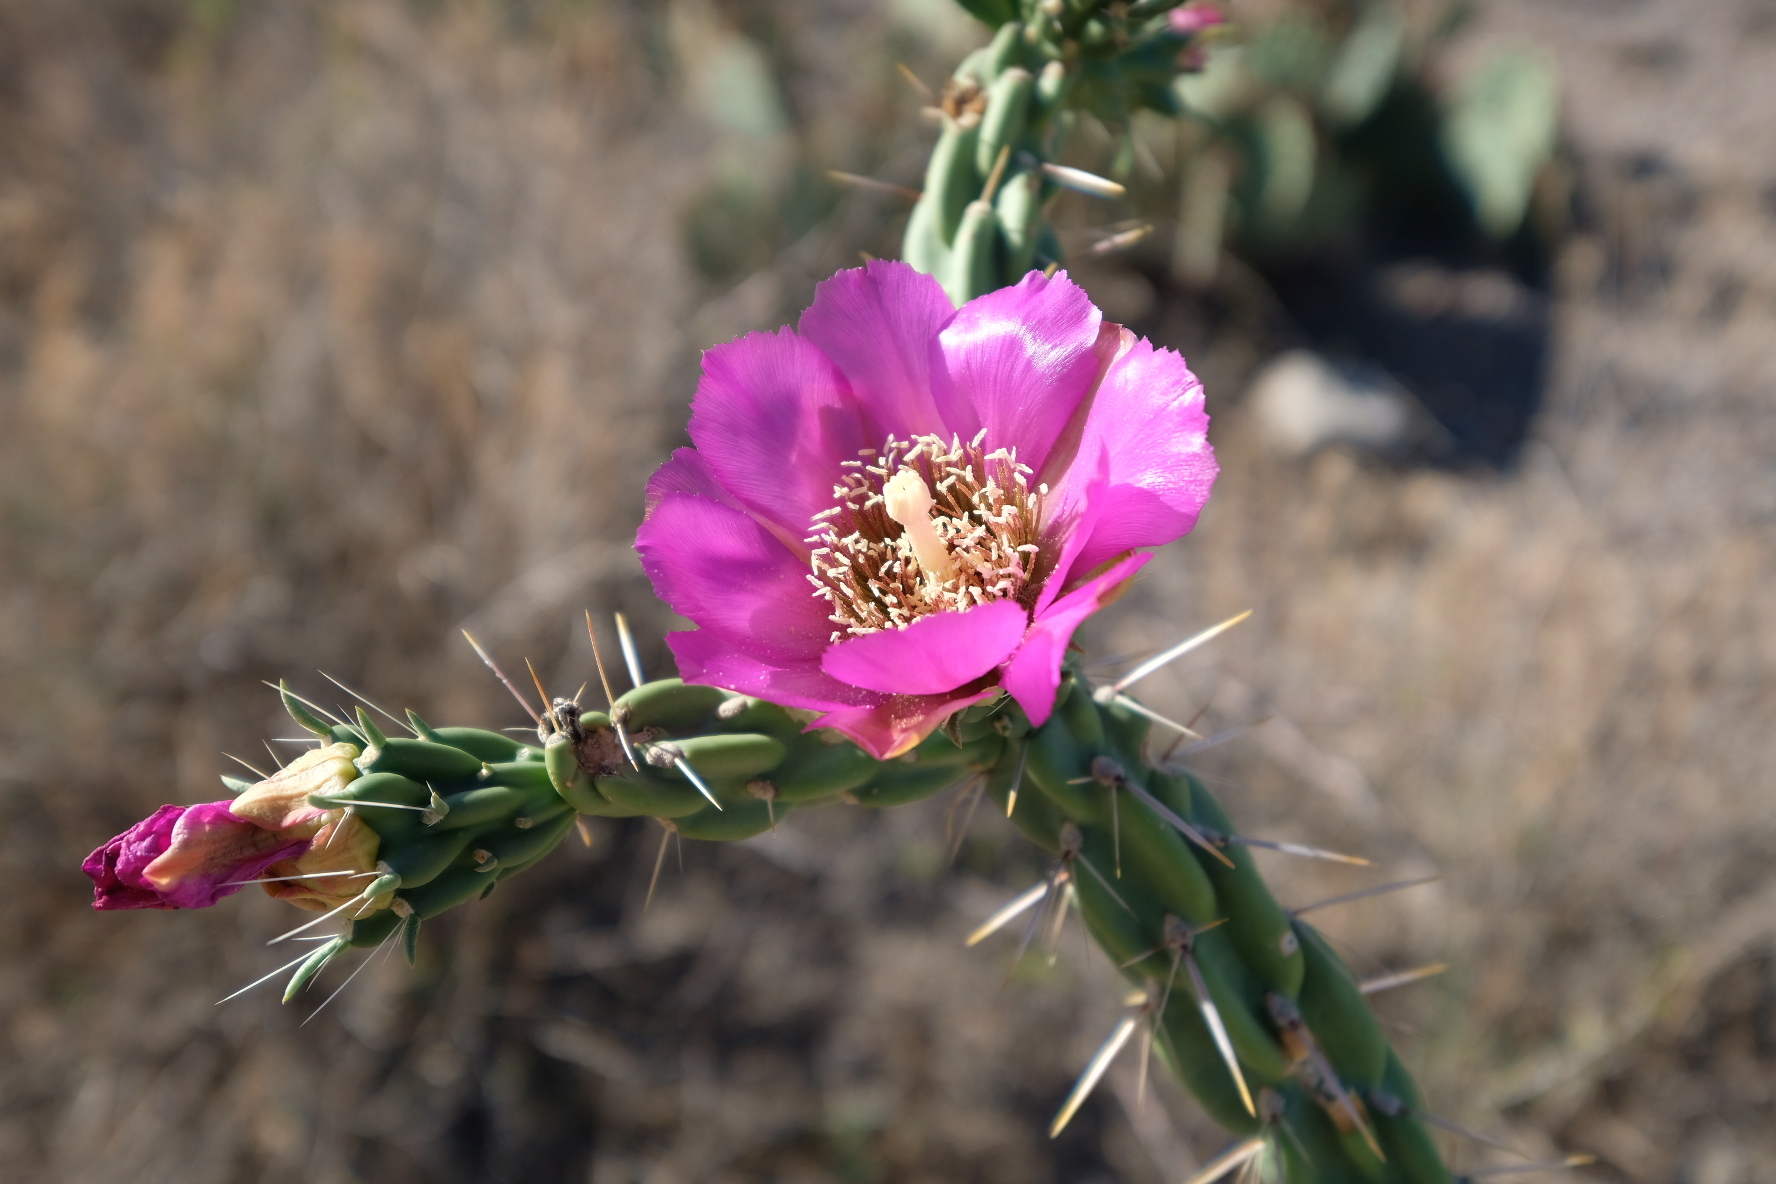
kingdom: Plantae
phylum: Tracheophyta
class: Magnoliopsida
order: Caryophyllales
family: Cactaceae
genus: Cylindropuntia
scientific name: Cylindropuntia imbricata
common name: Candelabrum cactus
